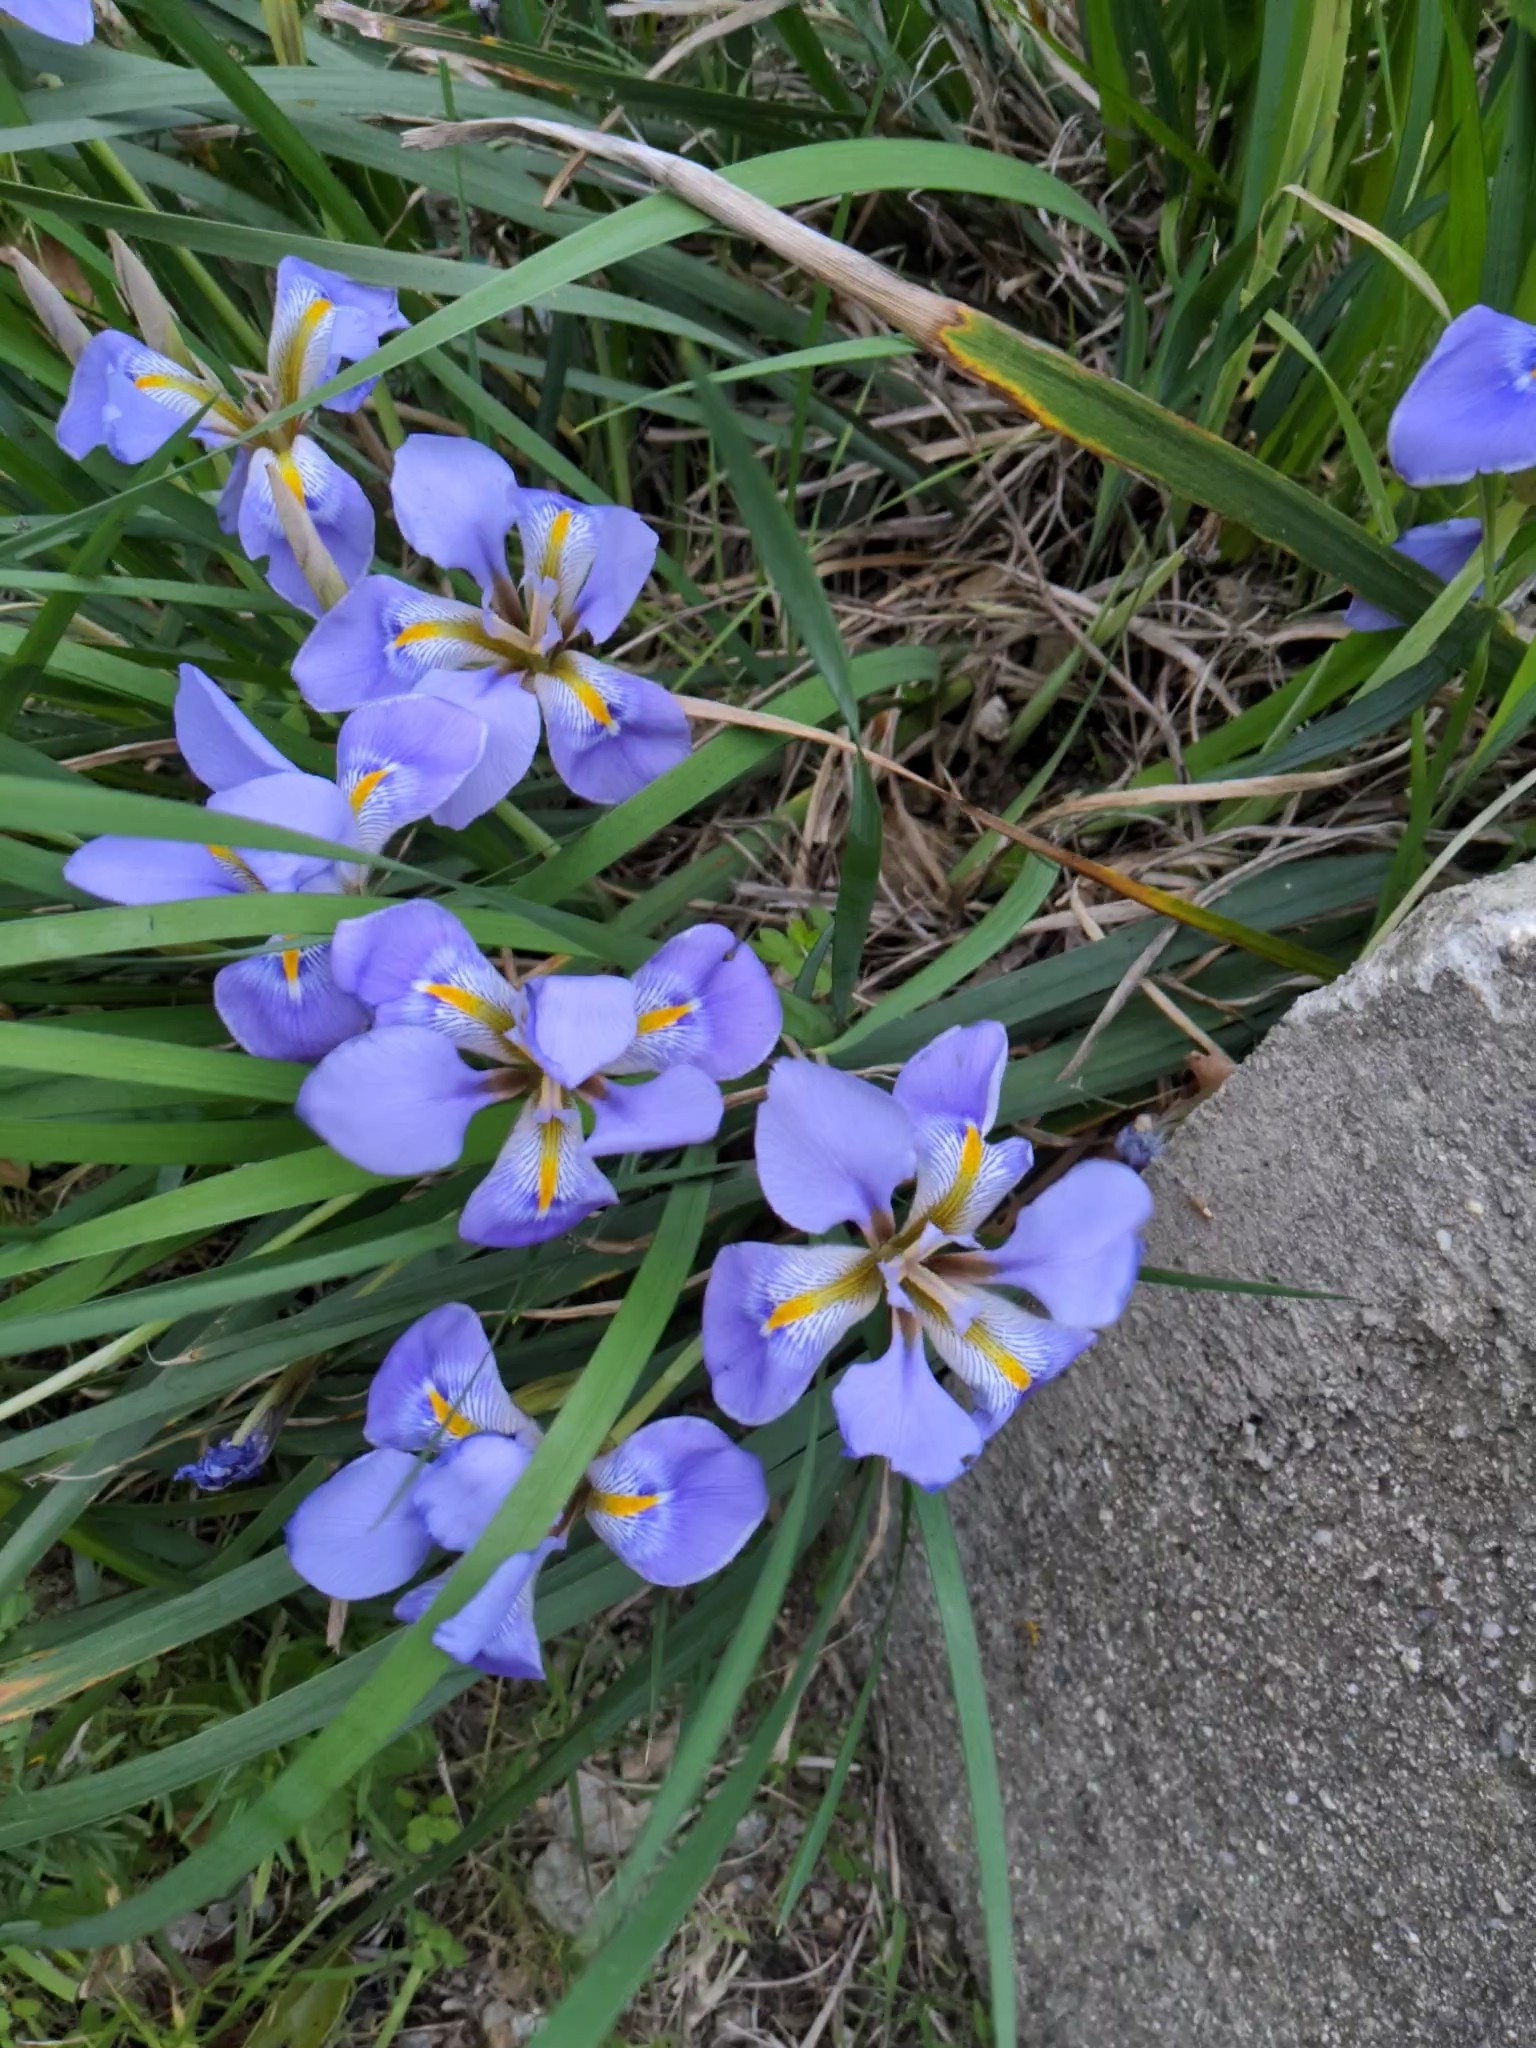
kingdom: Plantae
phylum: Tracheophyta
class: Liliopsida
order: Asparagales
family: Iridaceae
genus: Iris
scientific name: Iris unguicularis
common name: Algerian iris
